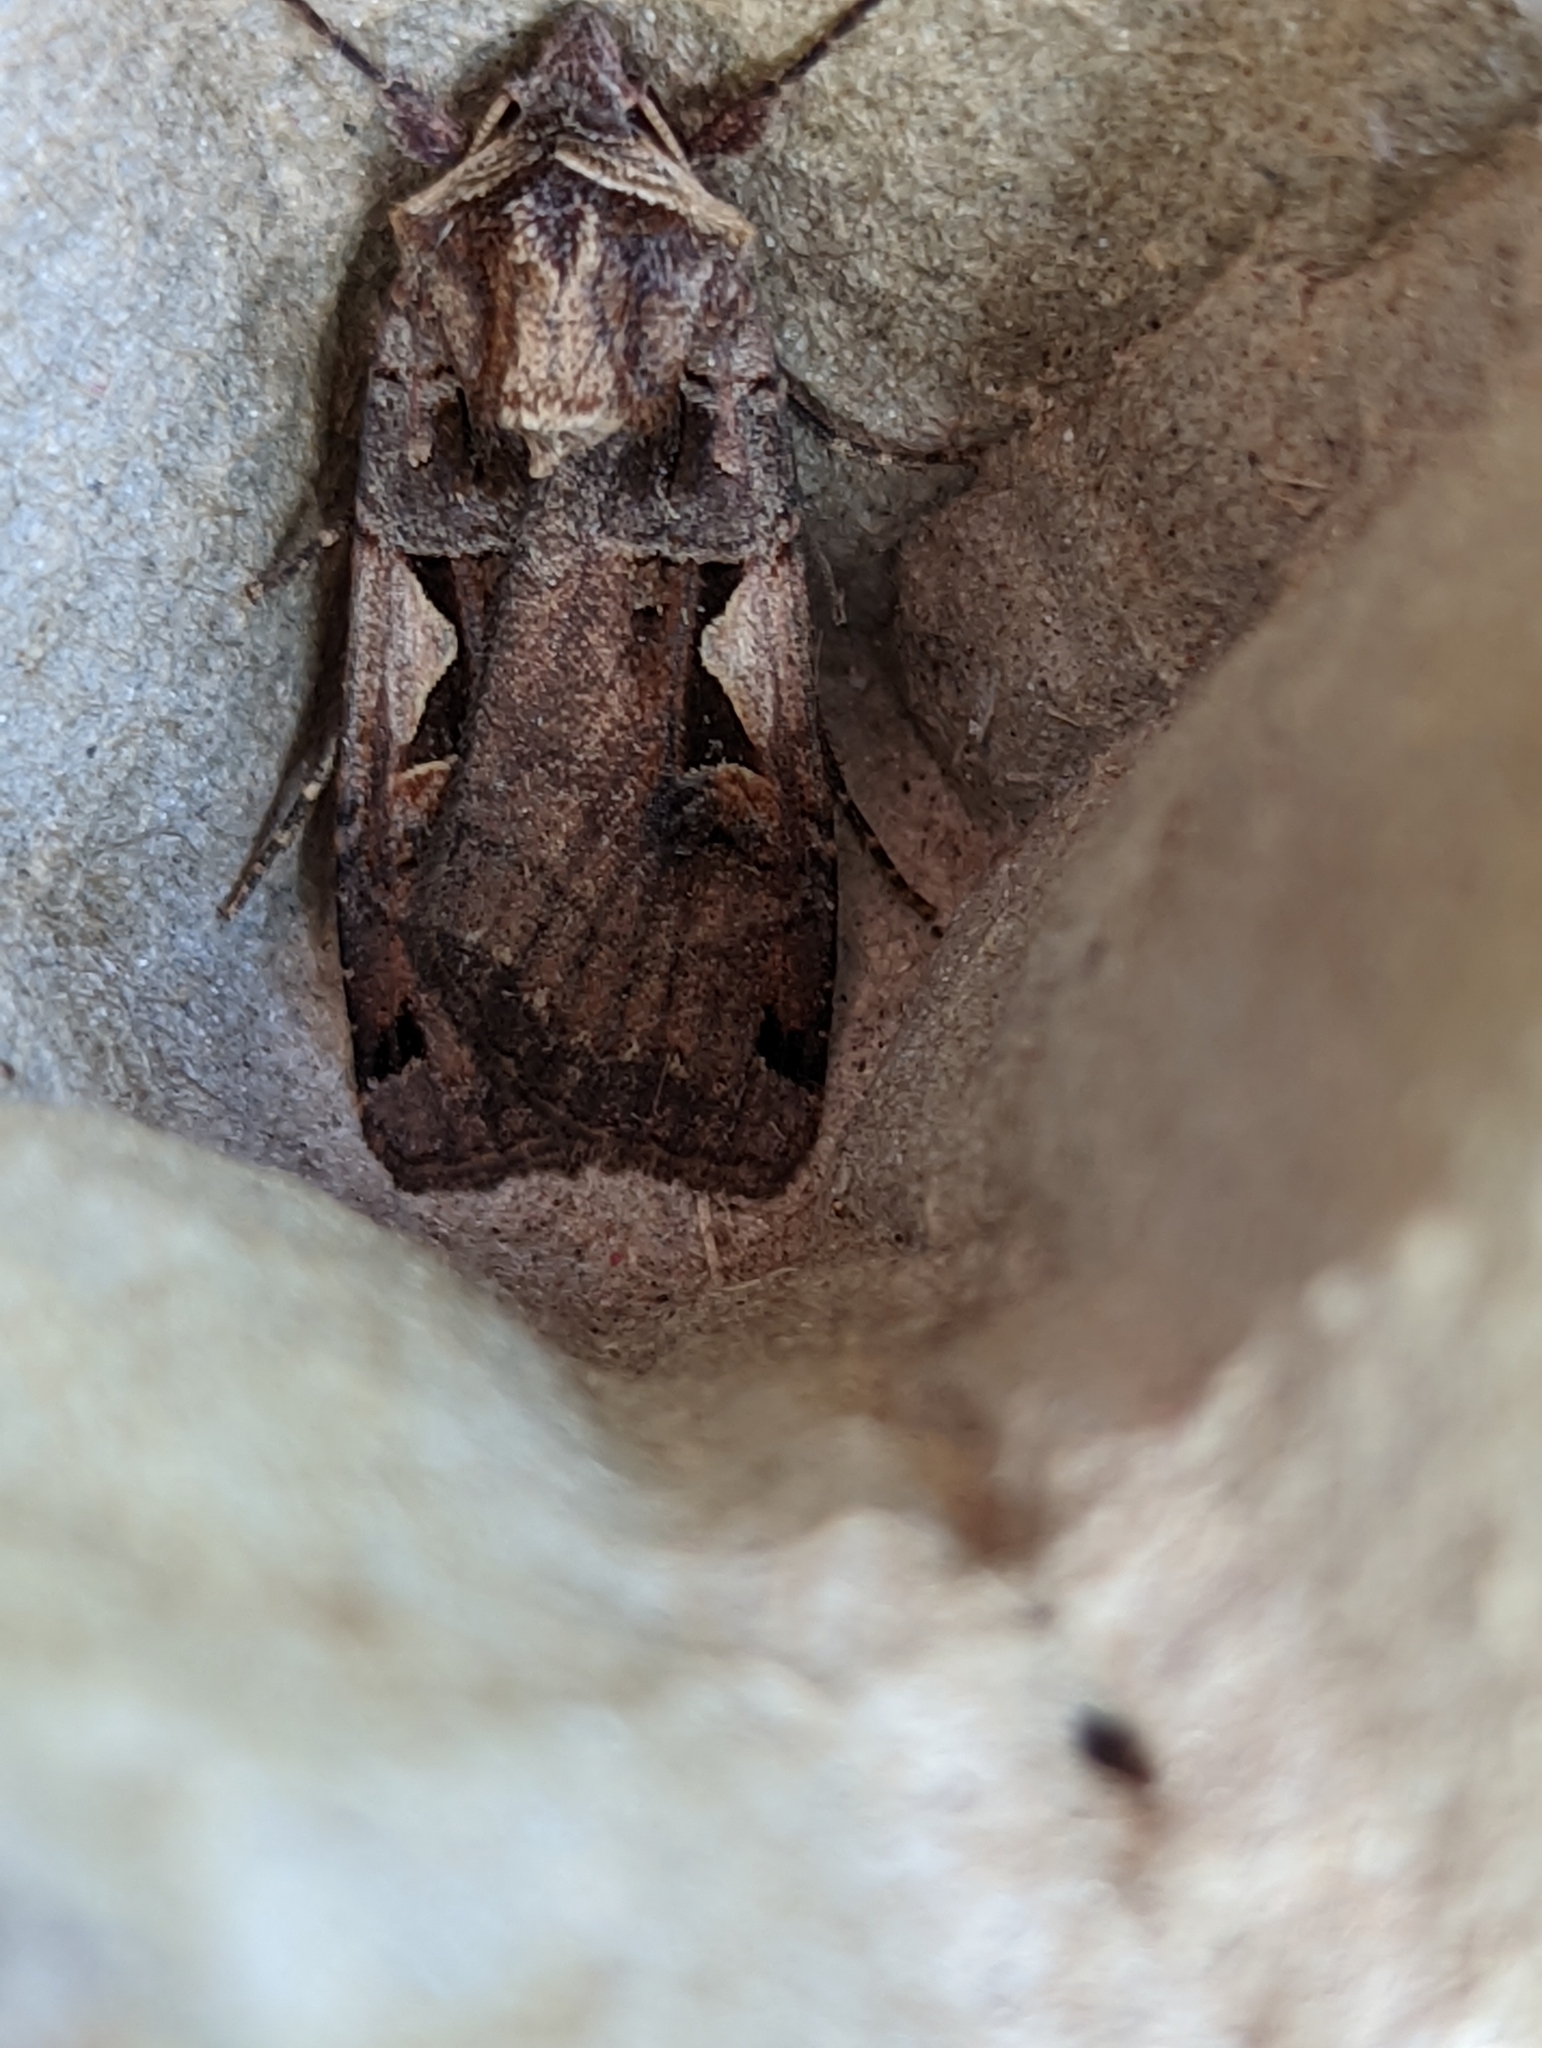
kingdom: Animalia
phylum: Arthropoda
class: Insecta
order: Lepidoptera
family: Noctuidae
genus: Xestia
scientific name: Xestia c-nigrum
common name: Setaceous hebrew character
